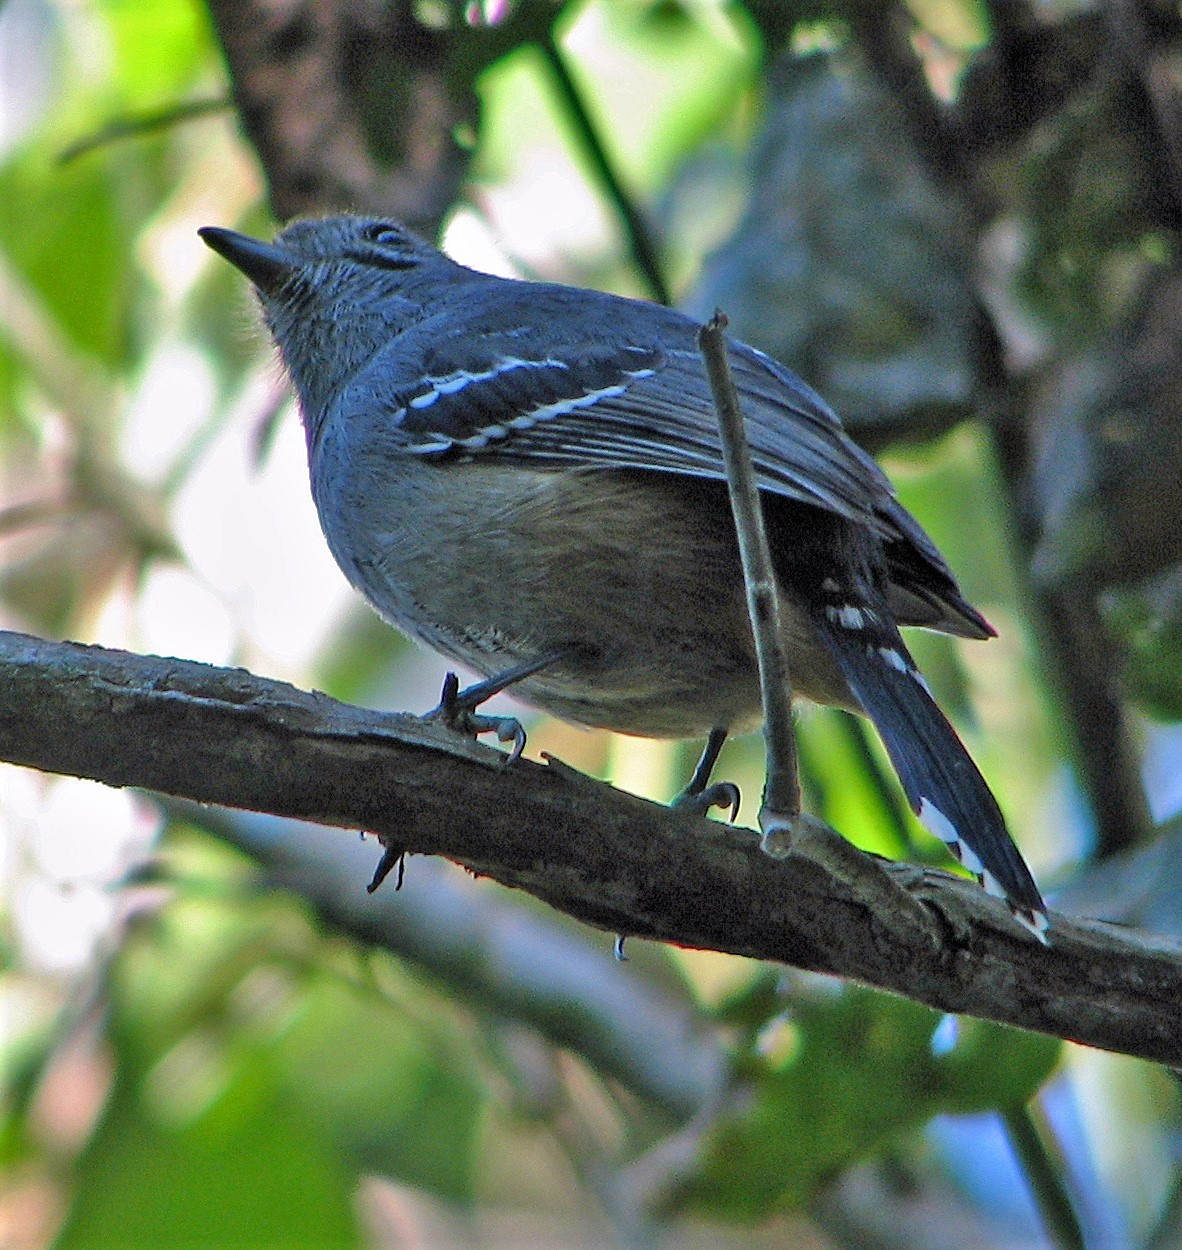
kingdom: Animalia
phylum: Chordata
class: Aves
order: Passeriformes
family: Thamnophilidae
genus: Thamnophilus
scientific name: Thamnophilus caerulescens
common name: Variable antshrike
